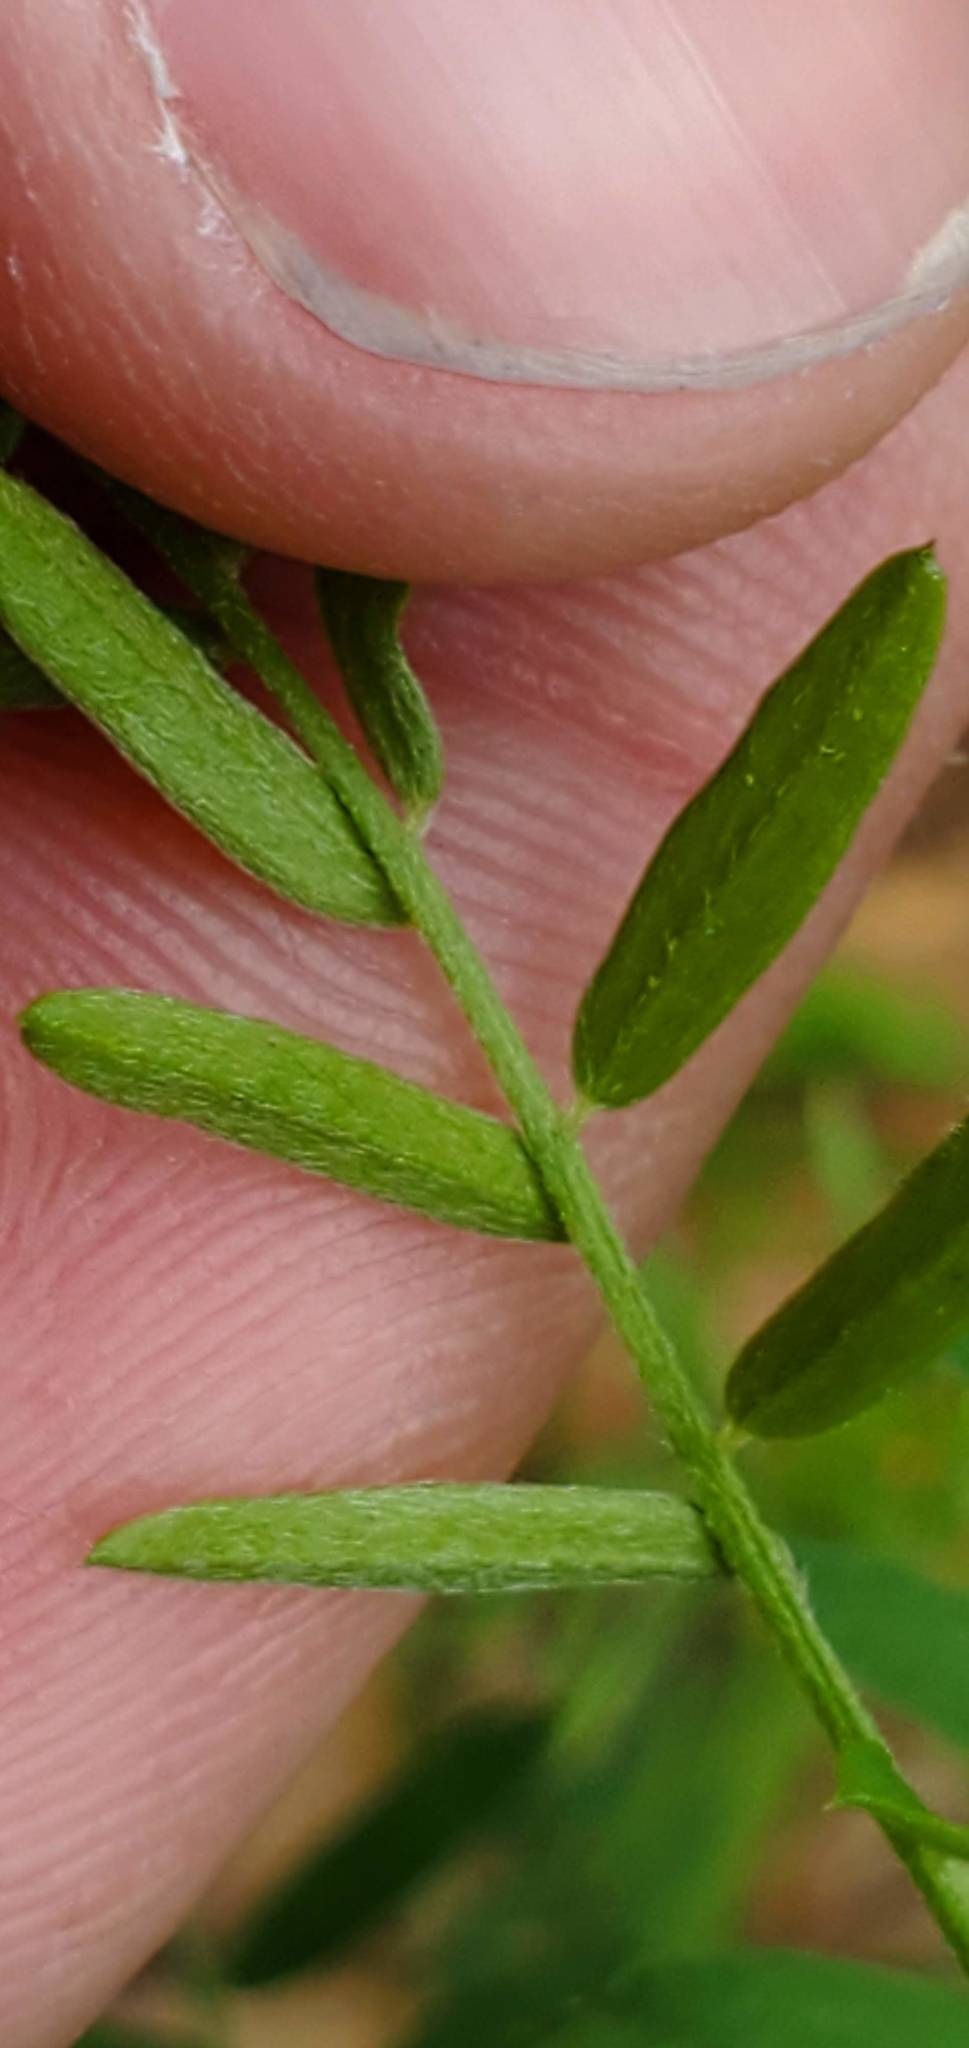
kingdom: Plantae
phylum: Tracheophyta
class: Magnoliopsida
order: Fabales
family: Fabaceae
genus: Vicia
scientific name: Vicia cracca
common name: Bird vetch
